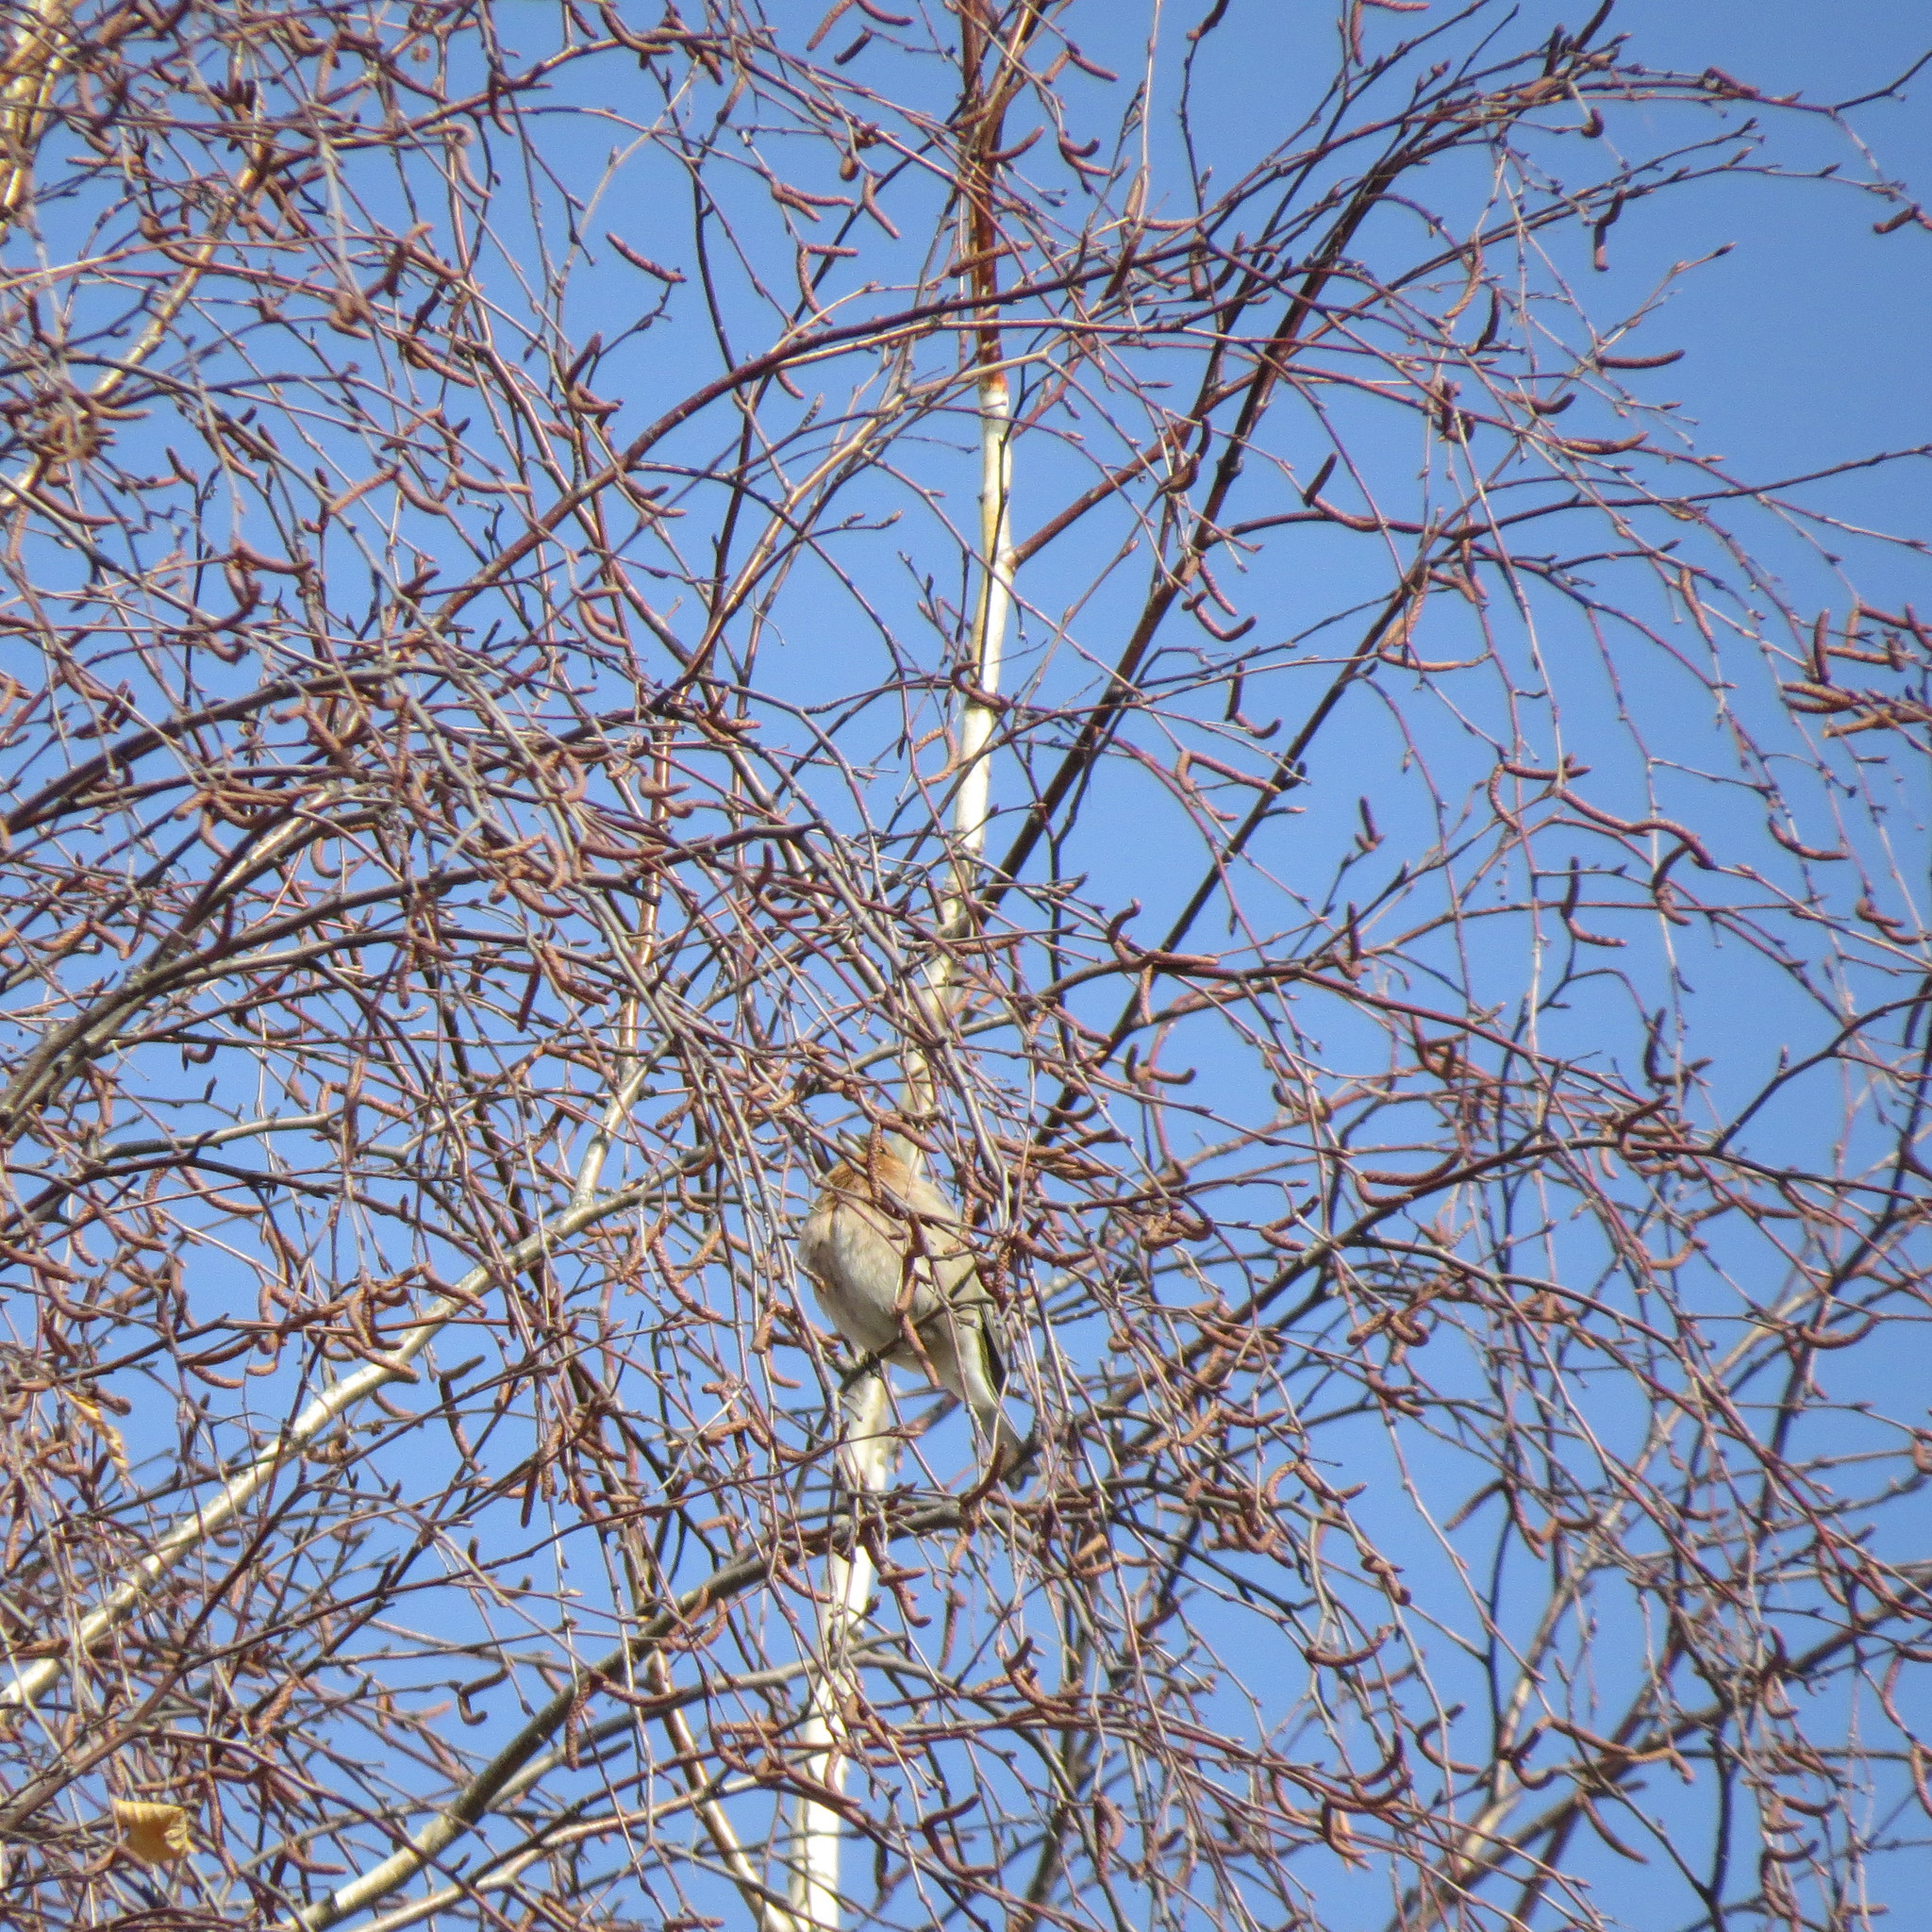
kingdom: Animalia
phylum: Chordata
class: Aves
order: Passeriformes
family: Fringillidae
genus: Fringilla
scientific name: Fringilla coelebs
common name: Common chaffinch
